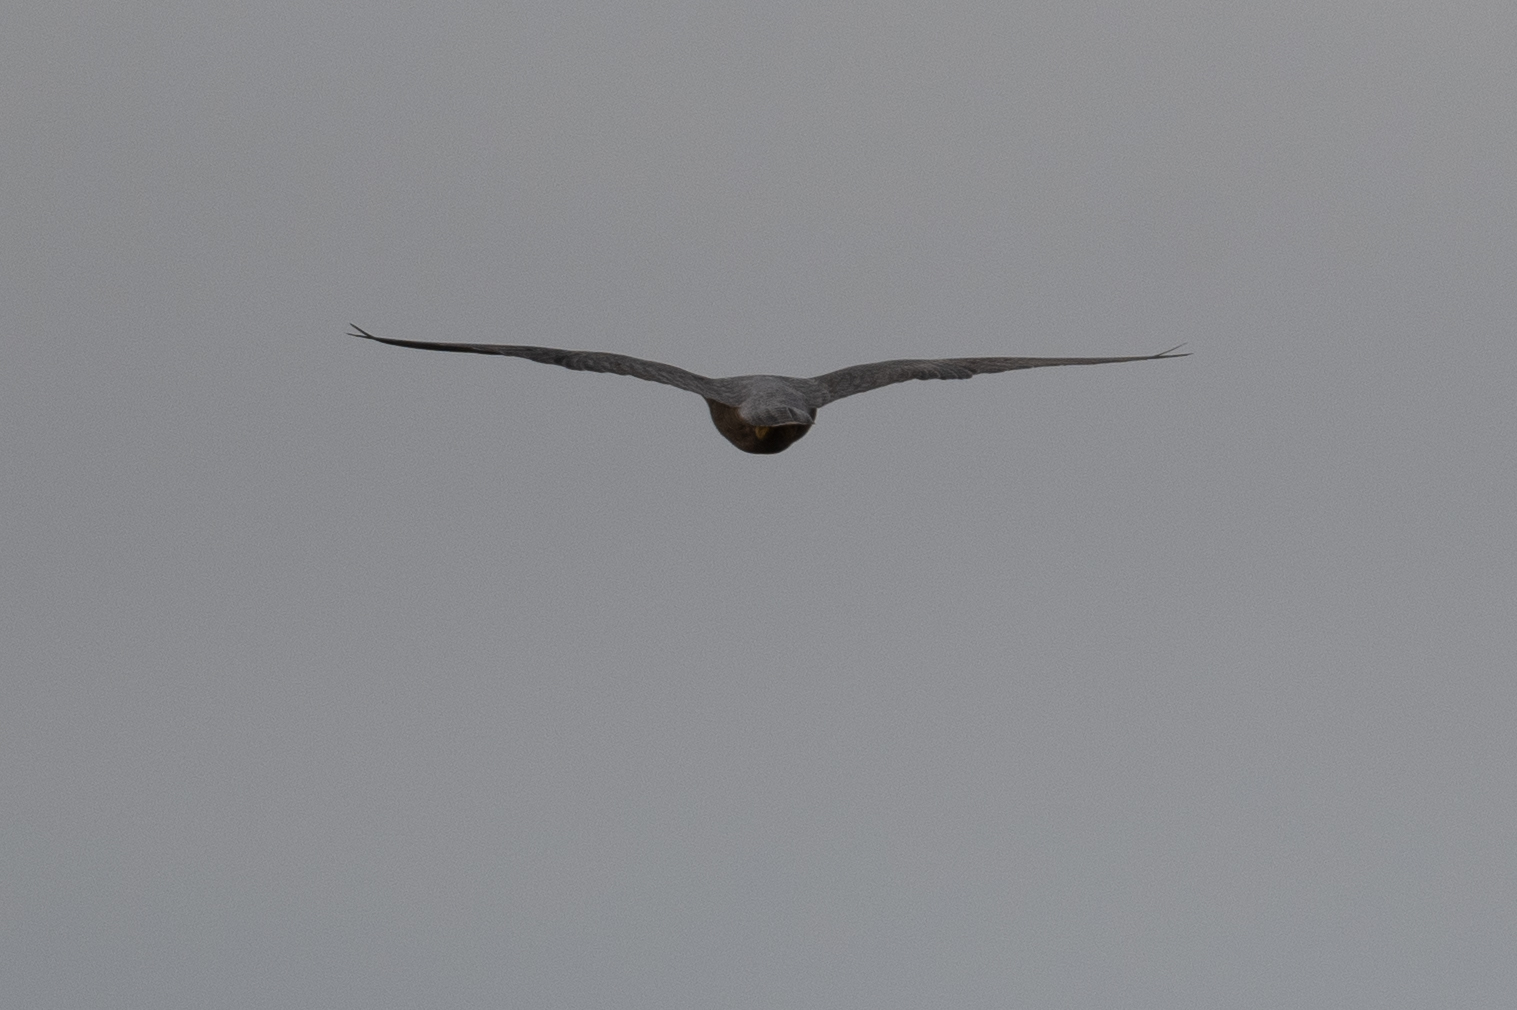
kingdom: Animalia
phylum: Chordata
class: Aves
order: Falconiformes
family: Falconidae
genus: Falco
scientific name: Falco peregrinus
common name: Peregrine falcon
